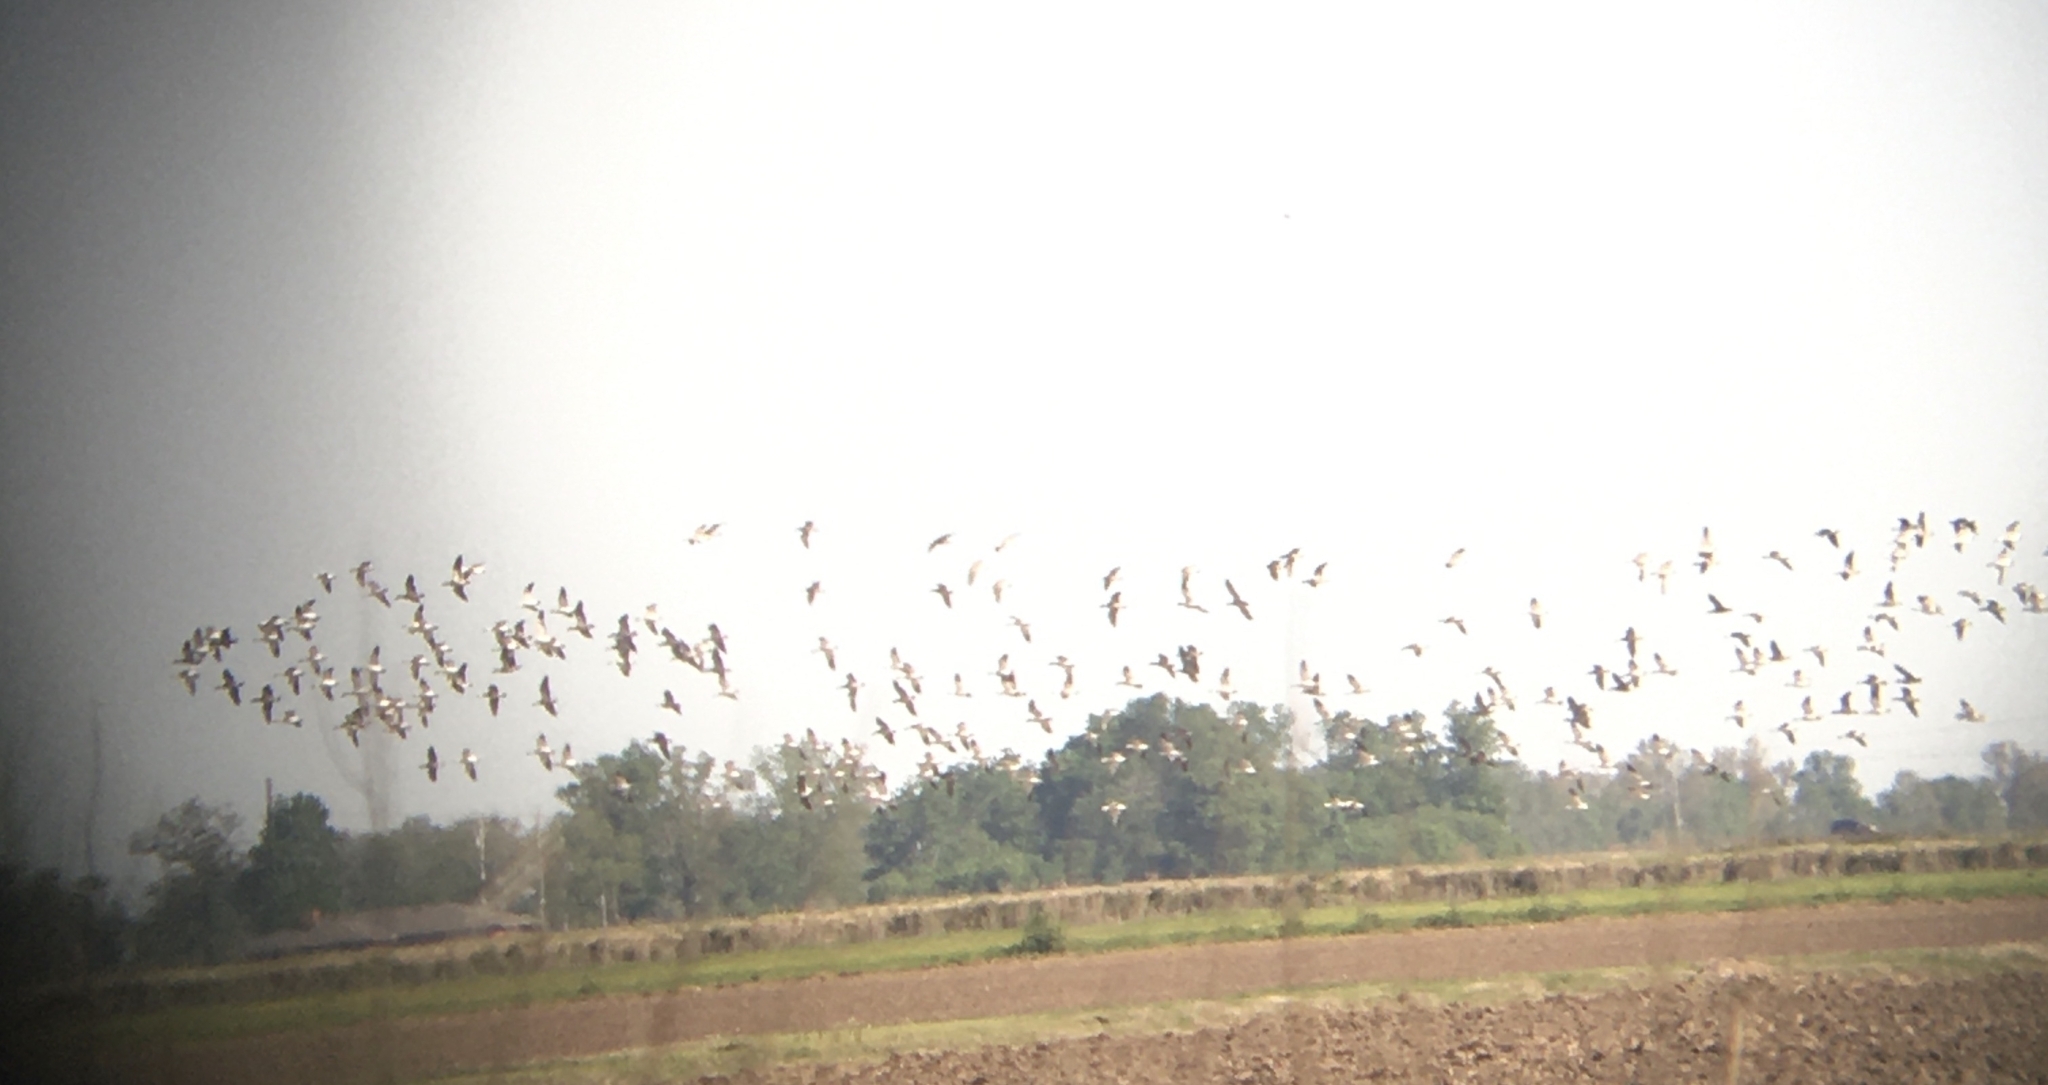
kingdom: Animalia
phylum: Chordata
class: Aves
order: Anseriformes
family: Anatidae
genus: Anser
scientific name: Anser caerulescens
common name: Snow goose
